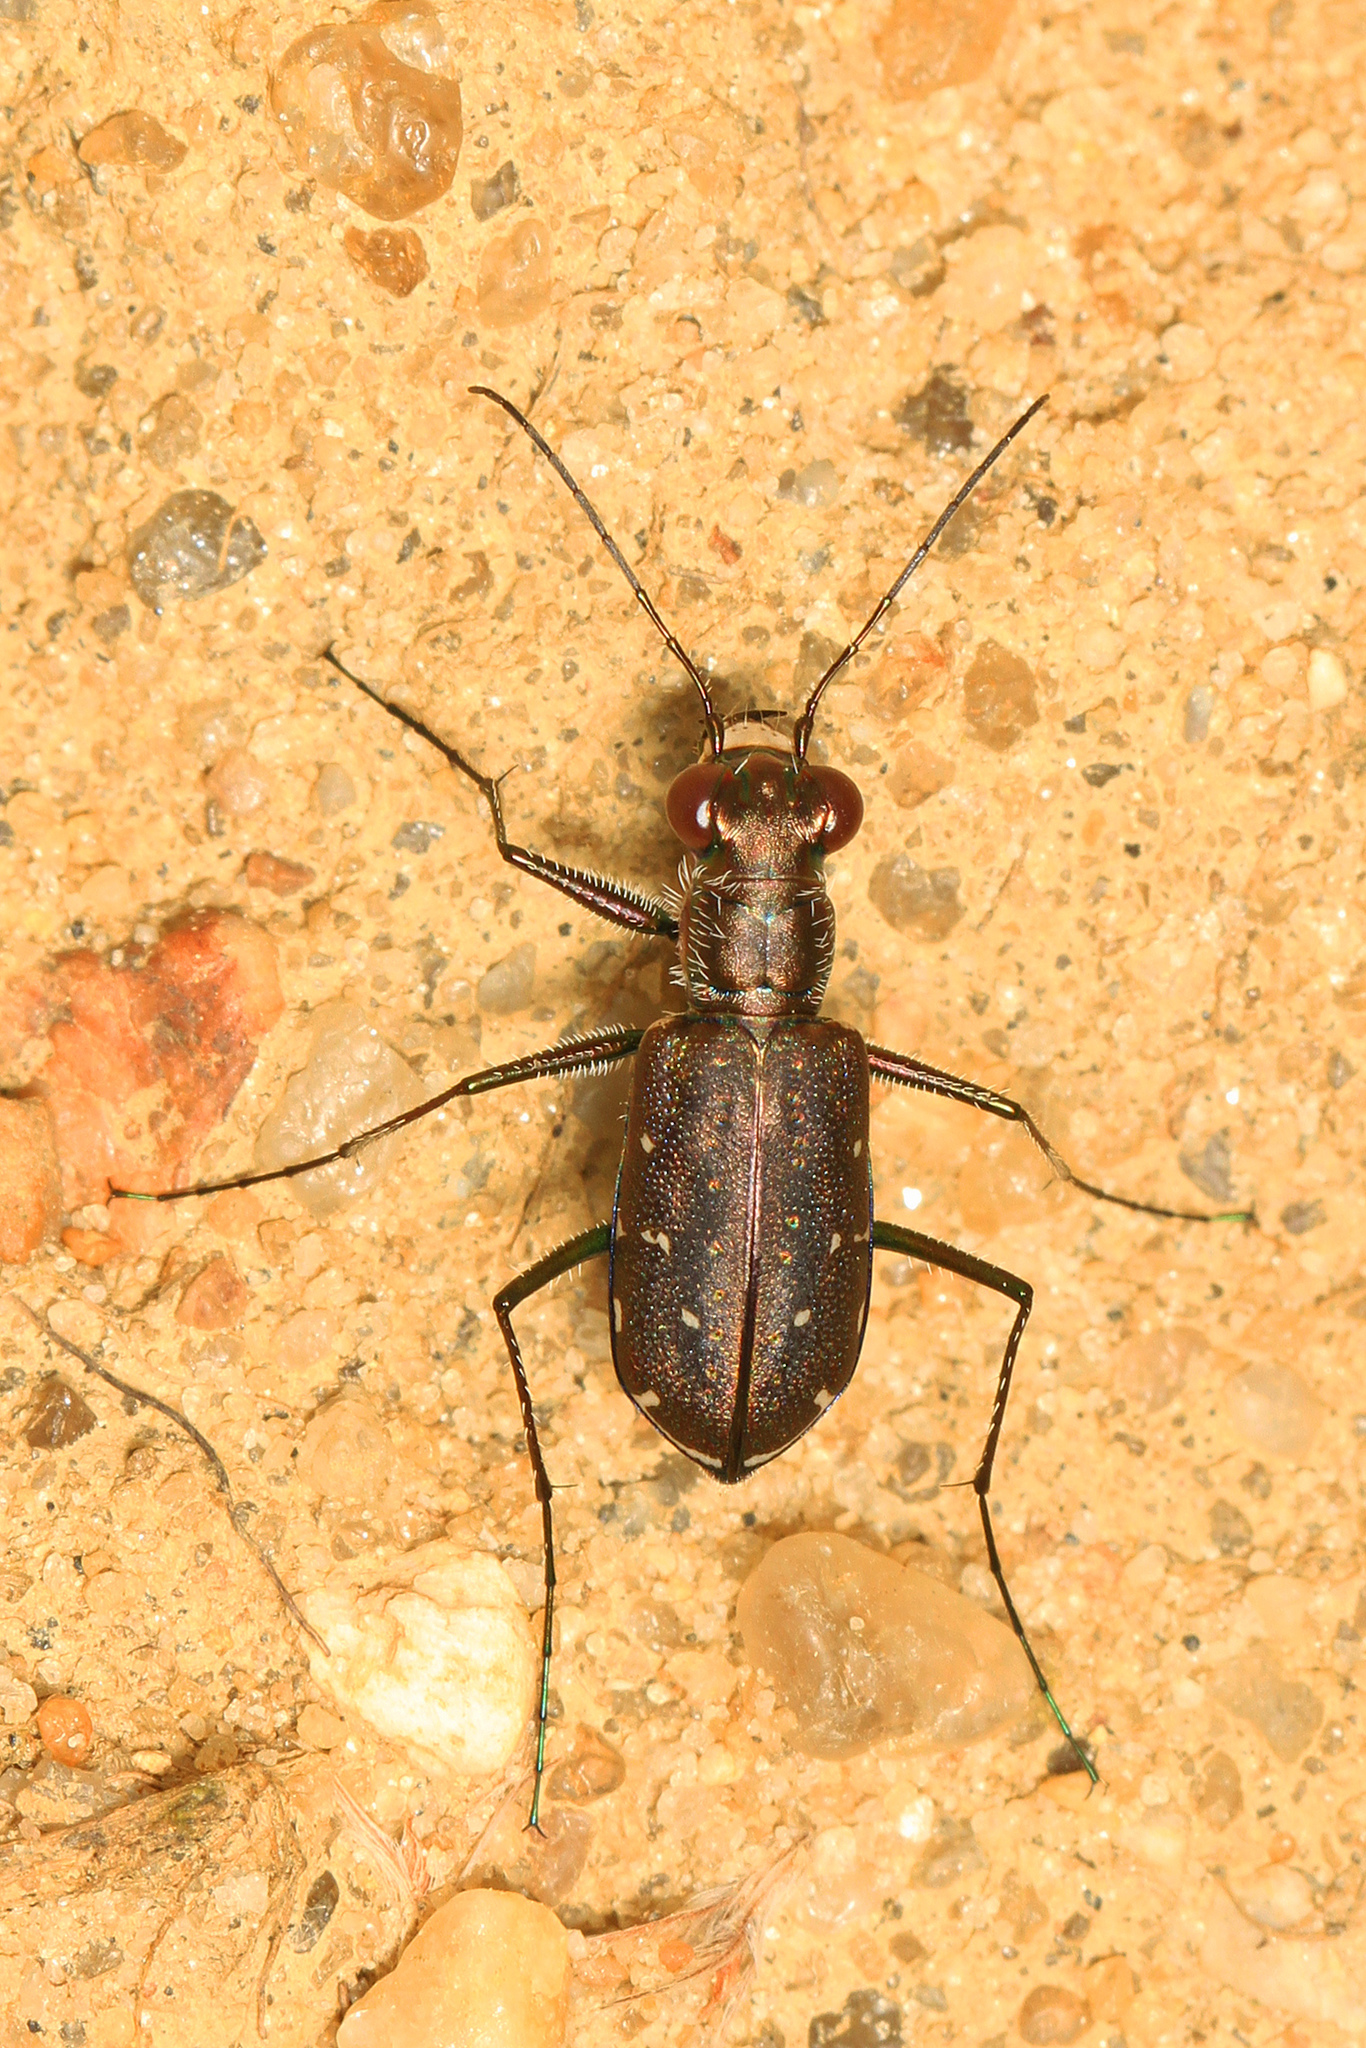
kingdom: Animalia
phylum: Arthropoda
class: Insecta
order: Coleoptera
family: Carabidae
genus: Cicindela
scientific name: Cicindela punctulata
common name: Punctured tiger beetle
